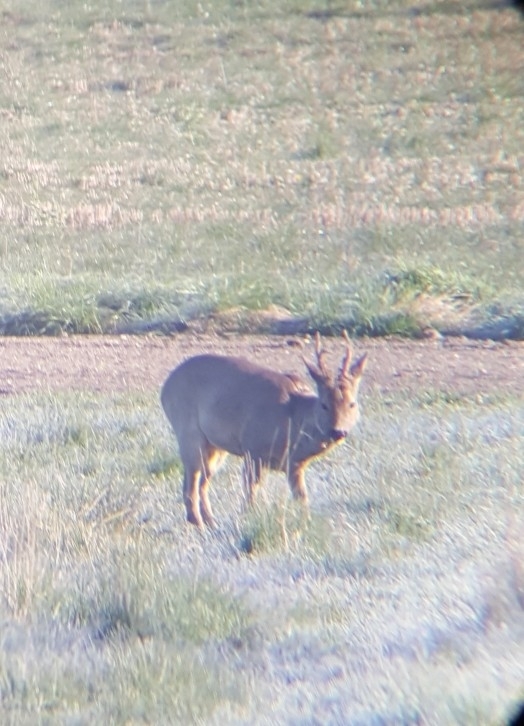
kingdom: Animalia
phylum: Chordata
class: Mammalia
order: Artiodactyla
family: Cervidae
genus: Capreolus
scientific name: Capreolus capreolus
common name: Western roe deer
